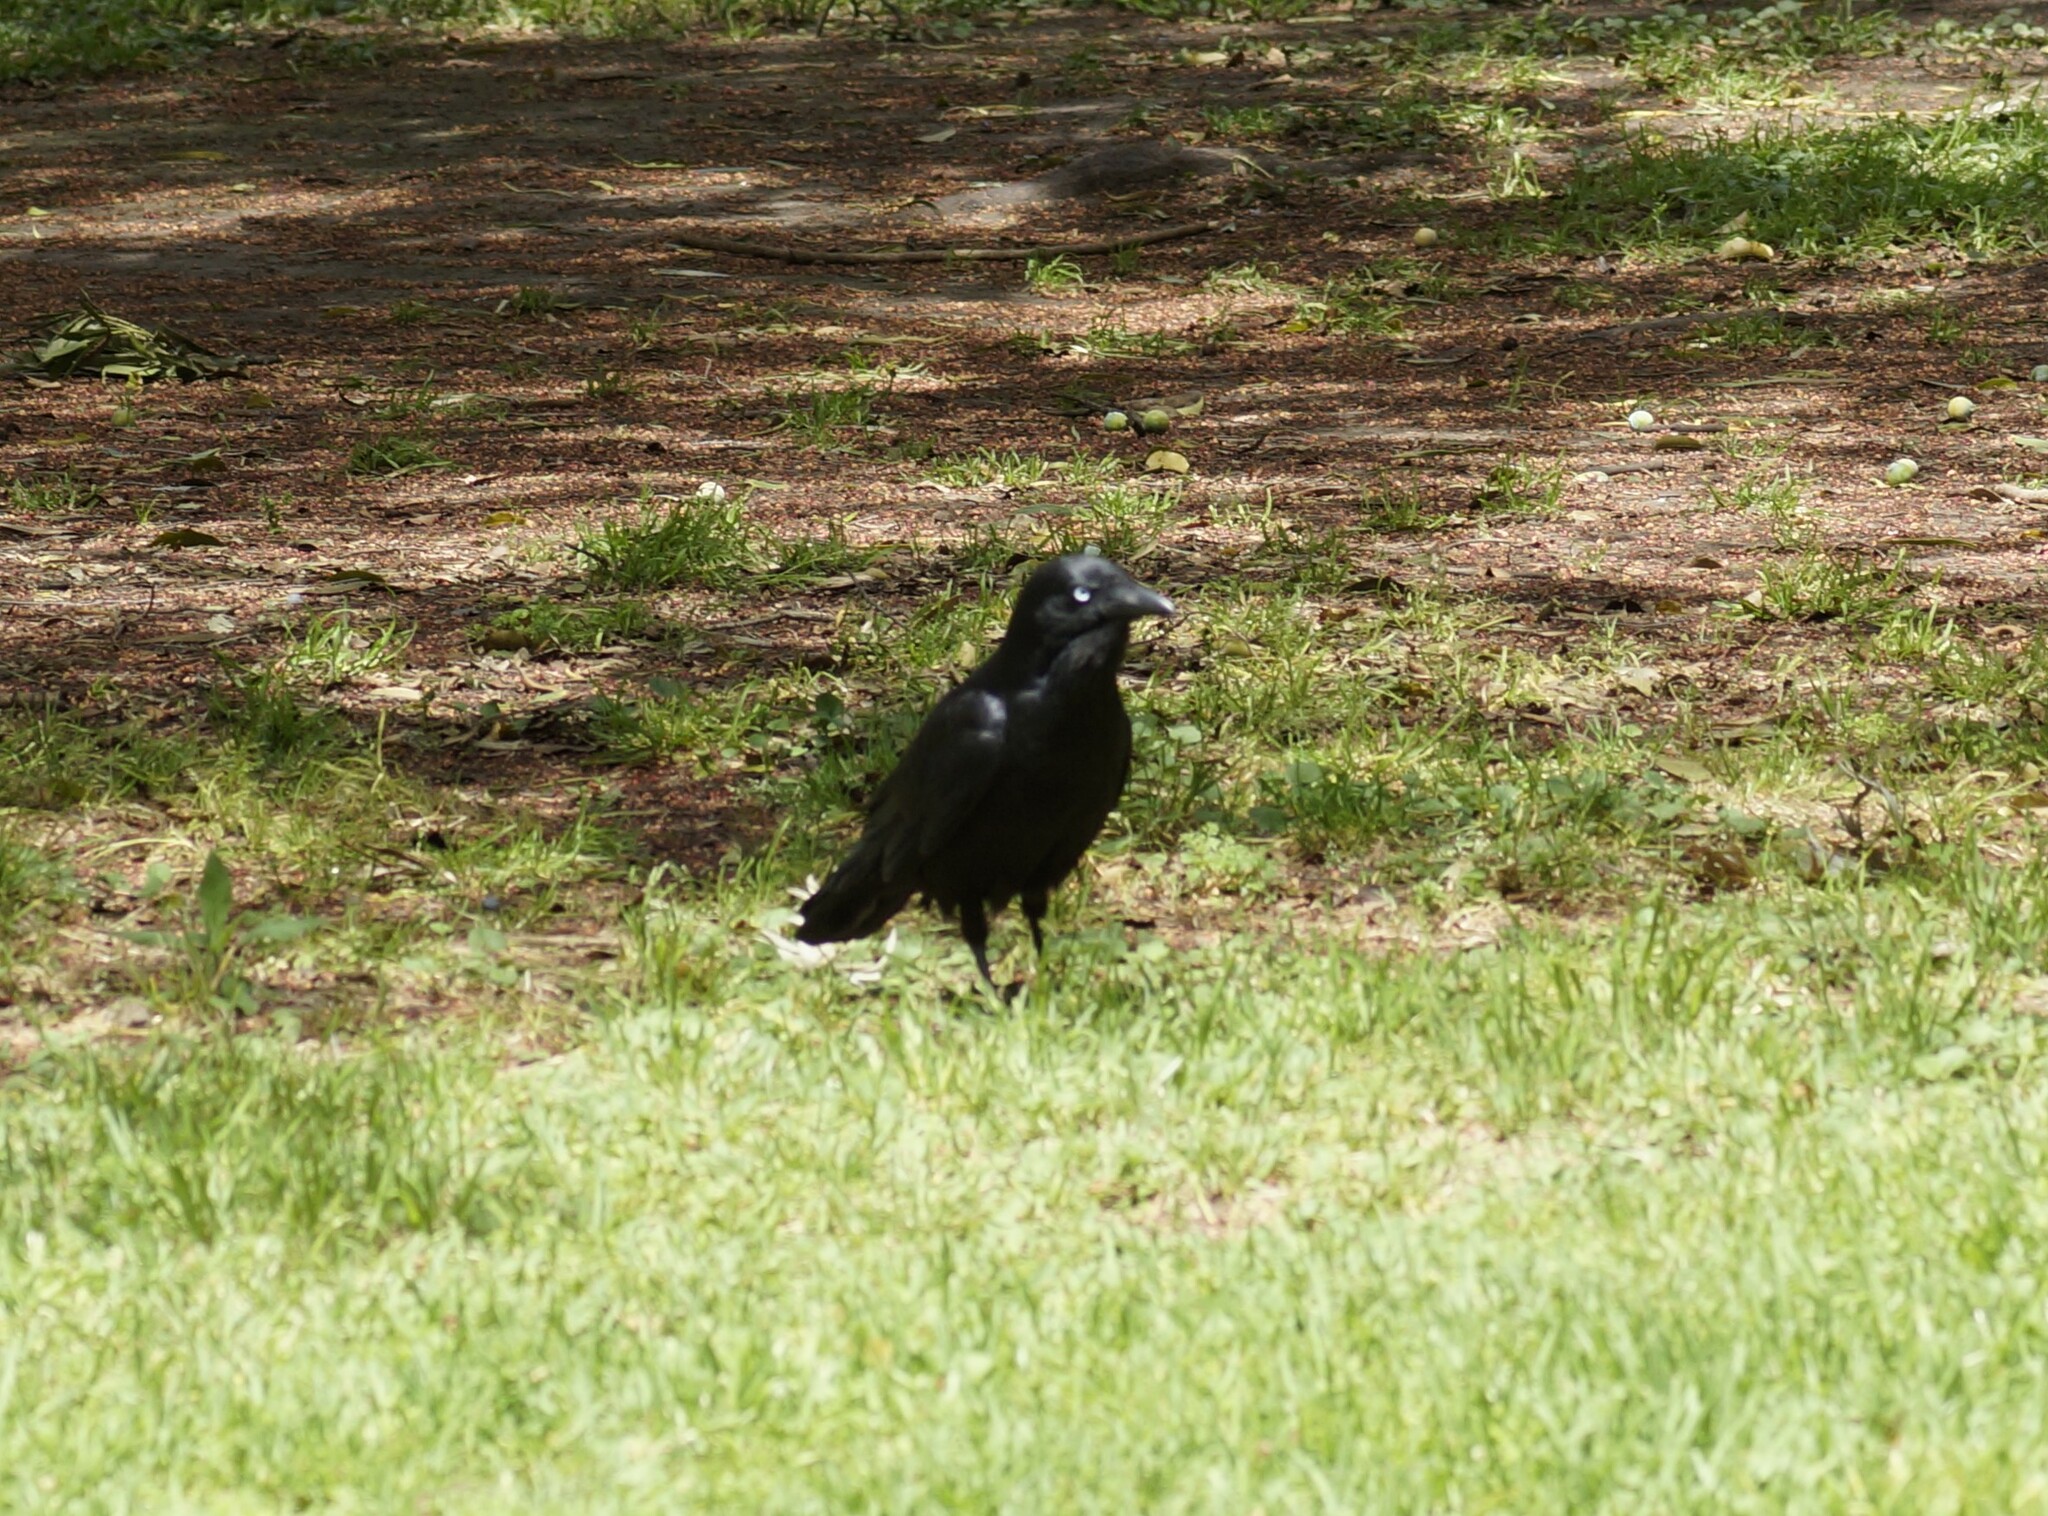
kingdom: Animalia
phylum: Chordata
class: Aves
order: Passeriformes
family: Corvidae
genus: Corvus
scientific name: Corvus mellori
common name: Little raven
